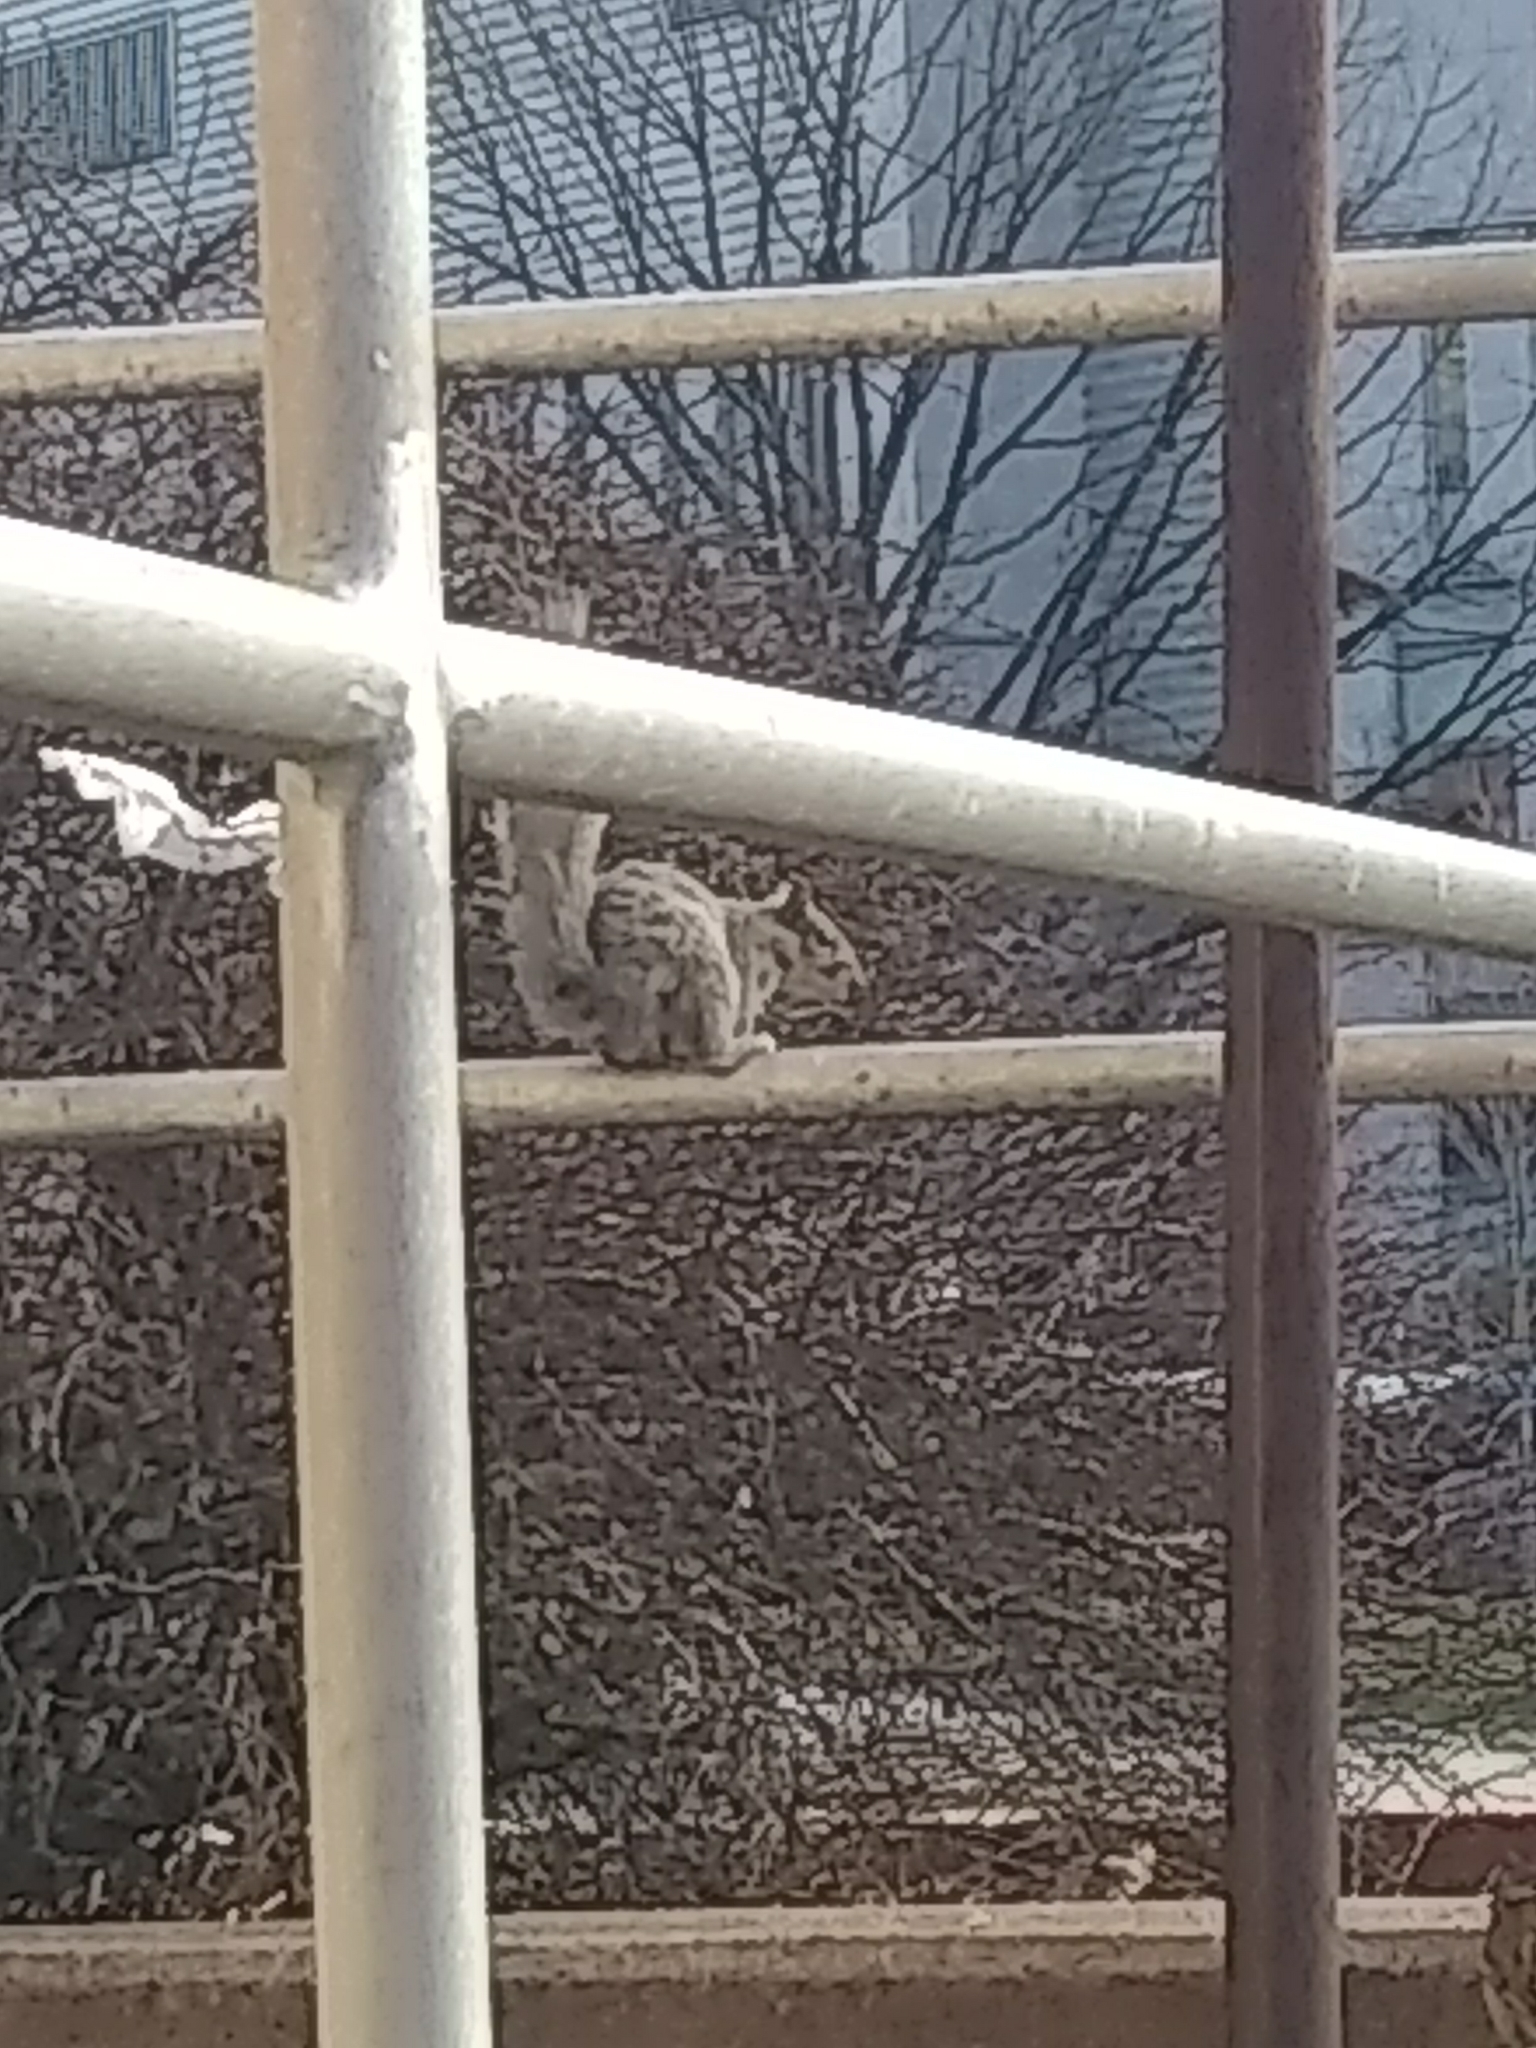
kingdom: Animalia
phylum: Chordata
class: Mammalia
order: Rodentia
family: Sciuridae
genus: Sciurus
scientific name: Sciurus carolinensis
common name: Eastern gray squirrel
